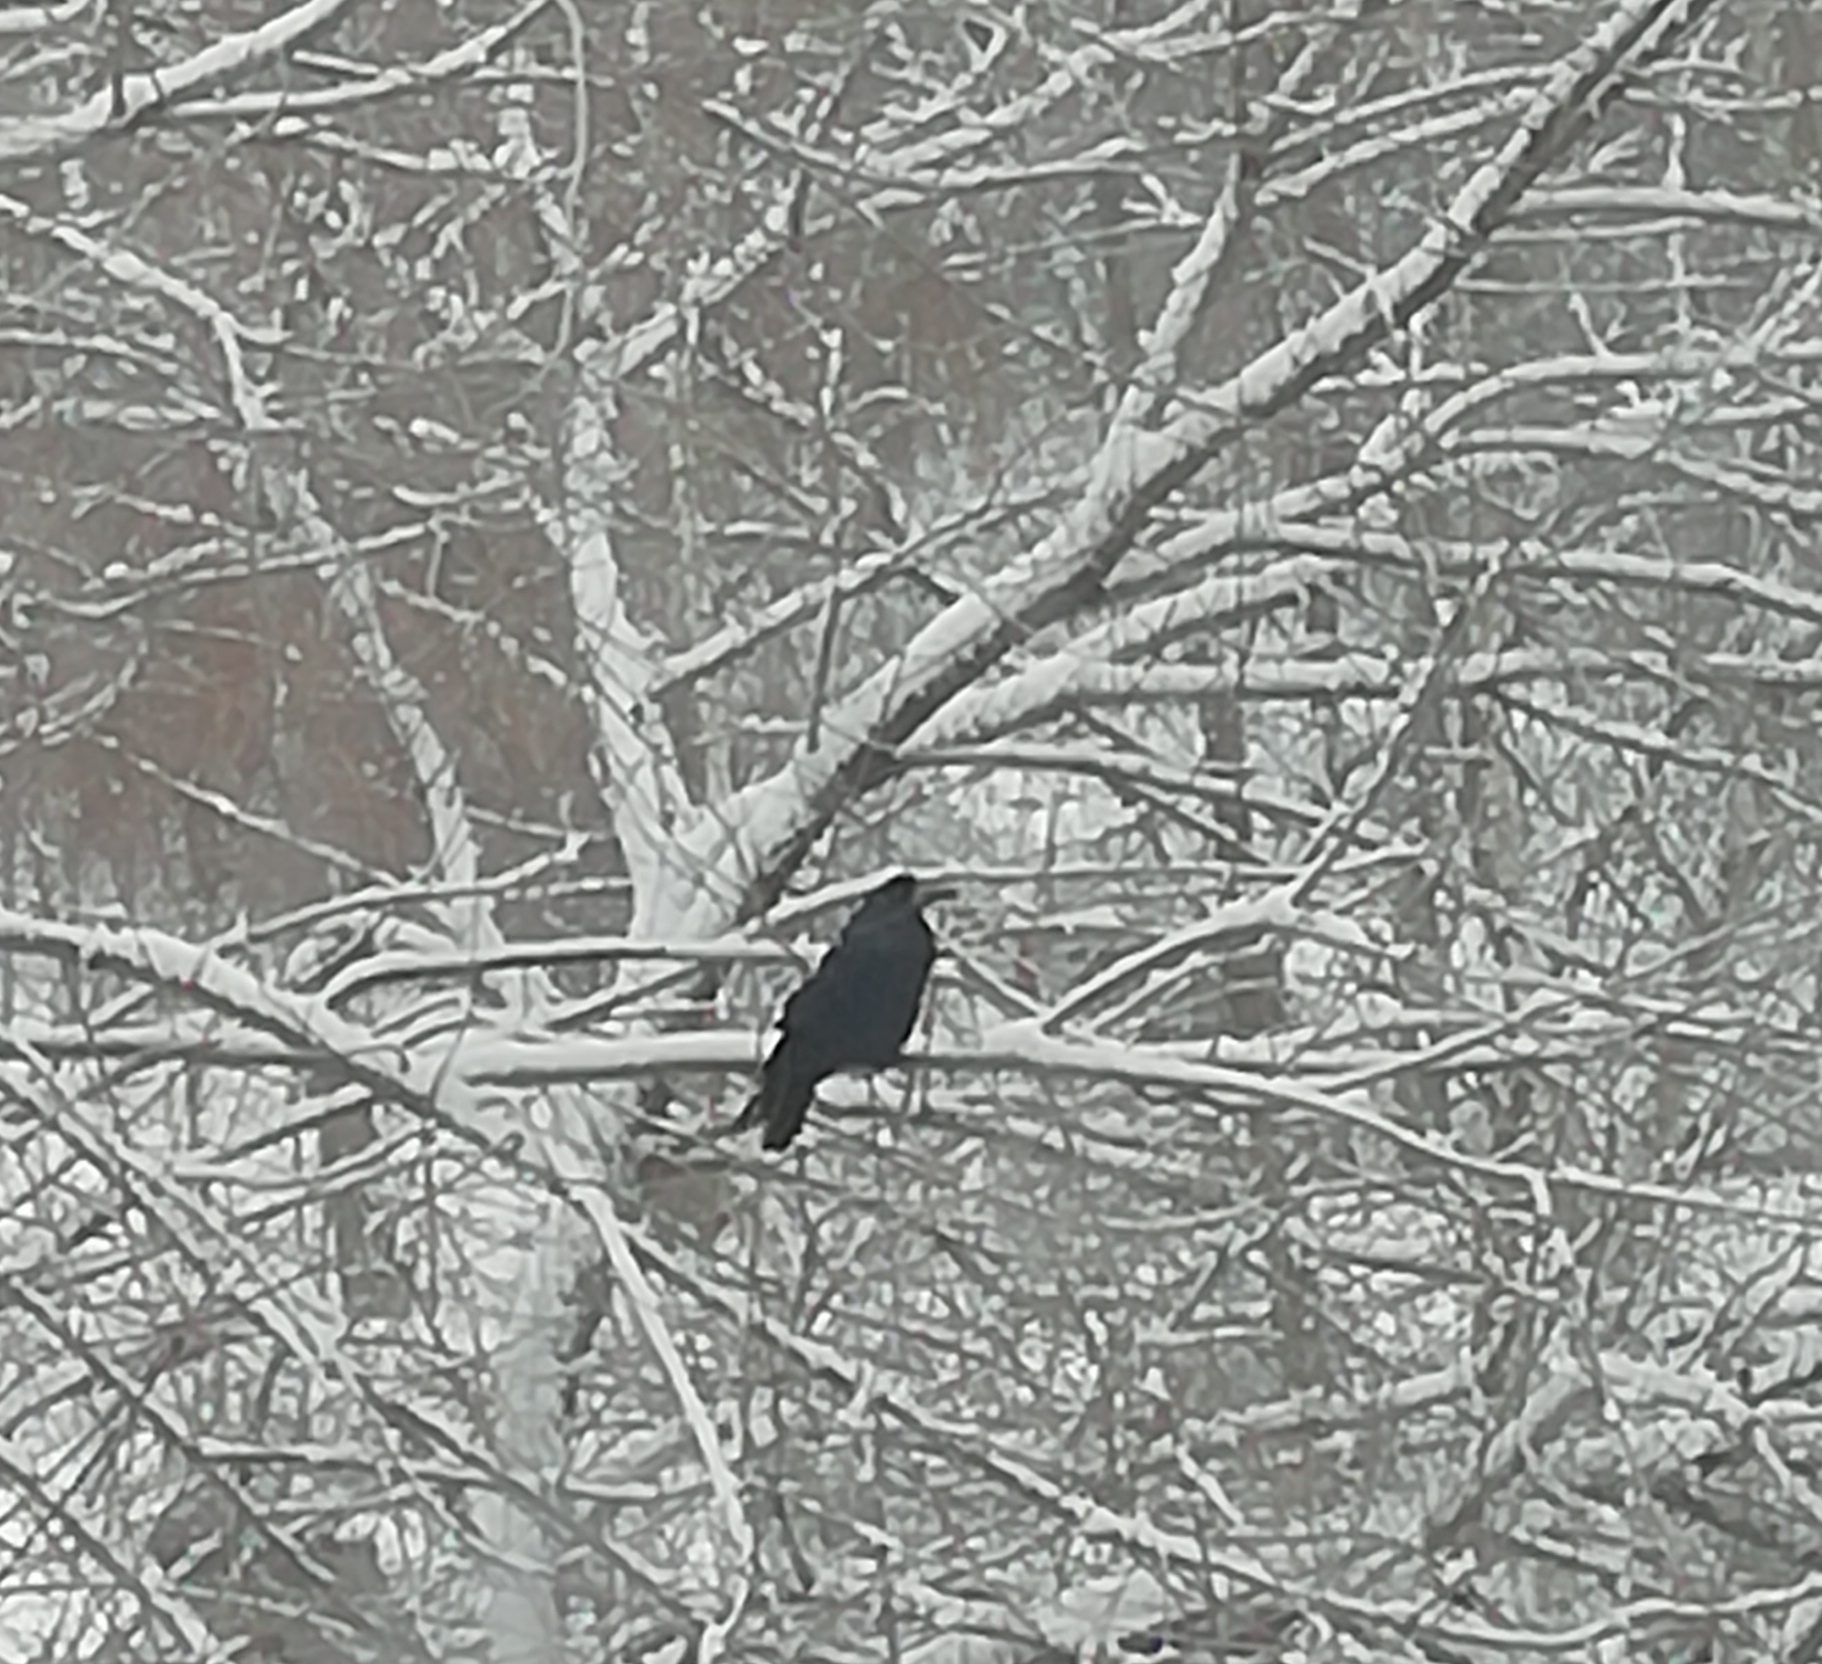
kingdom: Animalia
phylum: Chordata
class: Aves
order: Passeriformes
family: Corvidae
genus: Corvus
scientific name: Corvus frugilegus
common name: Rook
